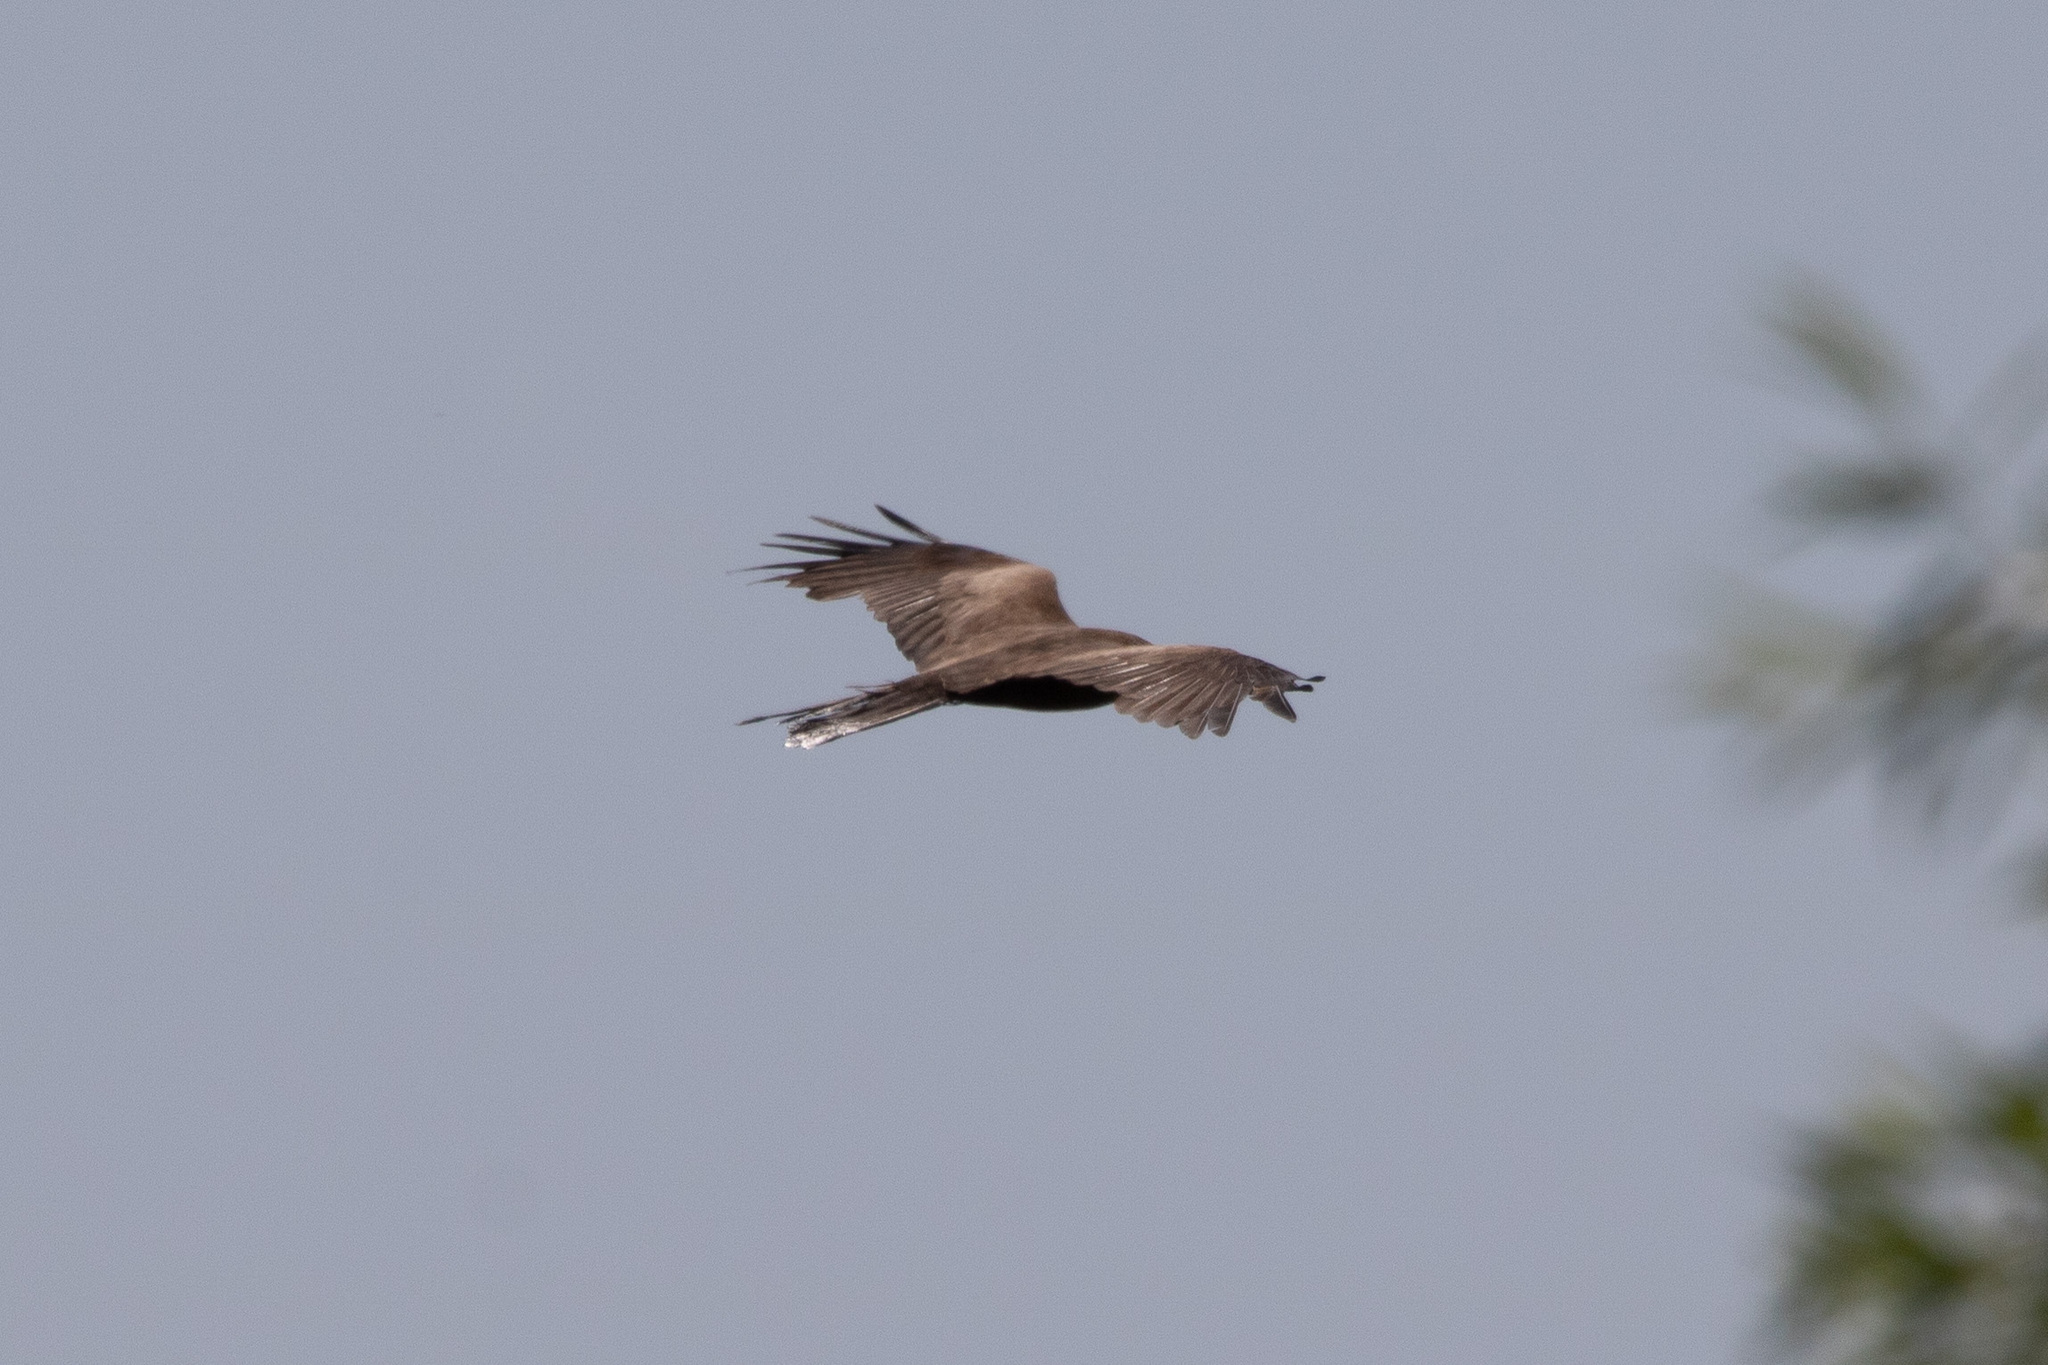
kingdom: Animalia
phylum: Chordata
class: Aves
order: Accipitriformes
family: Accipitridae
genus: Milvus
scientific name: Milvus migrans
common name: Black kite
